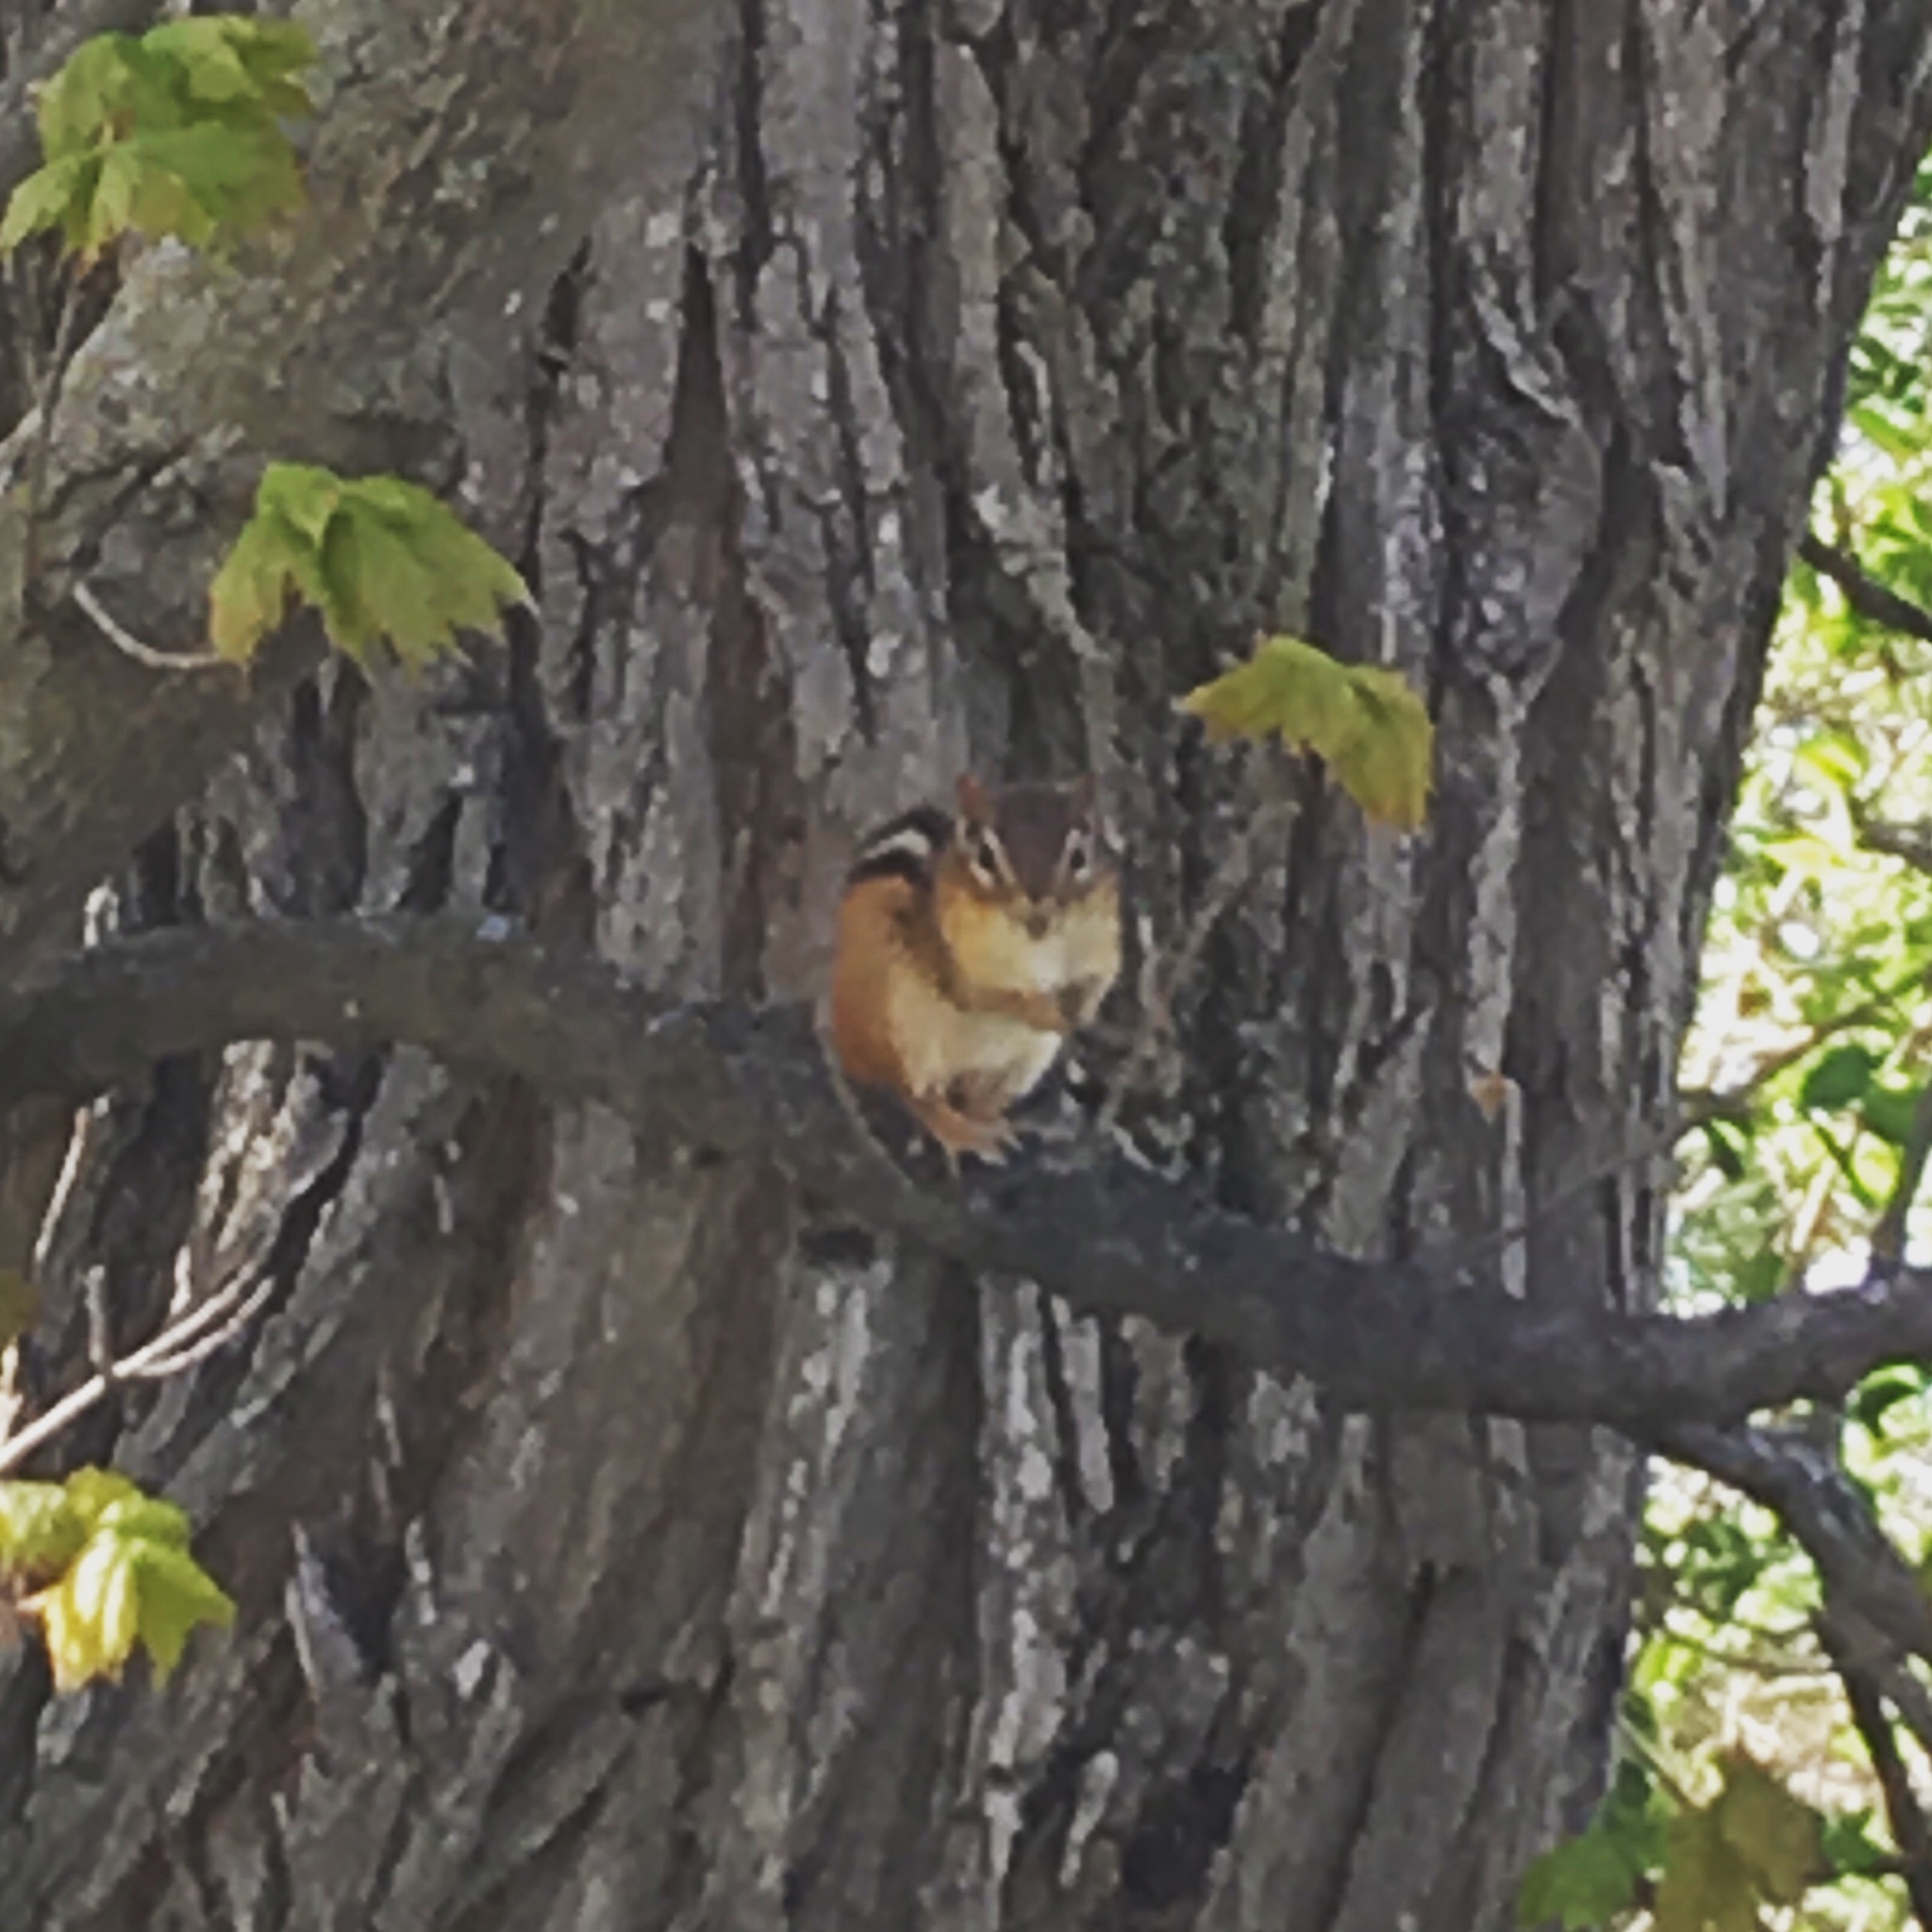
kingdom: Animalia
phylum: Chordata
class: Mammalia
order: Rodentia
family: Sciuridae
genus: Tamias
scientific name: Tamias striatus
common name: Eastern chipmunk
